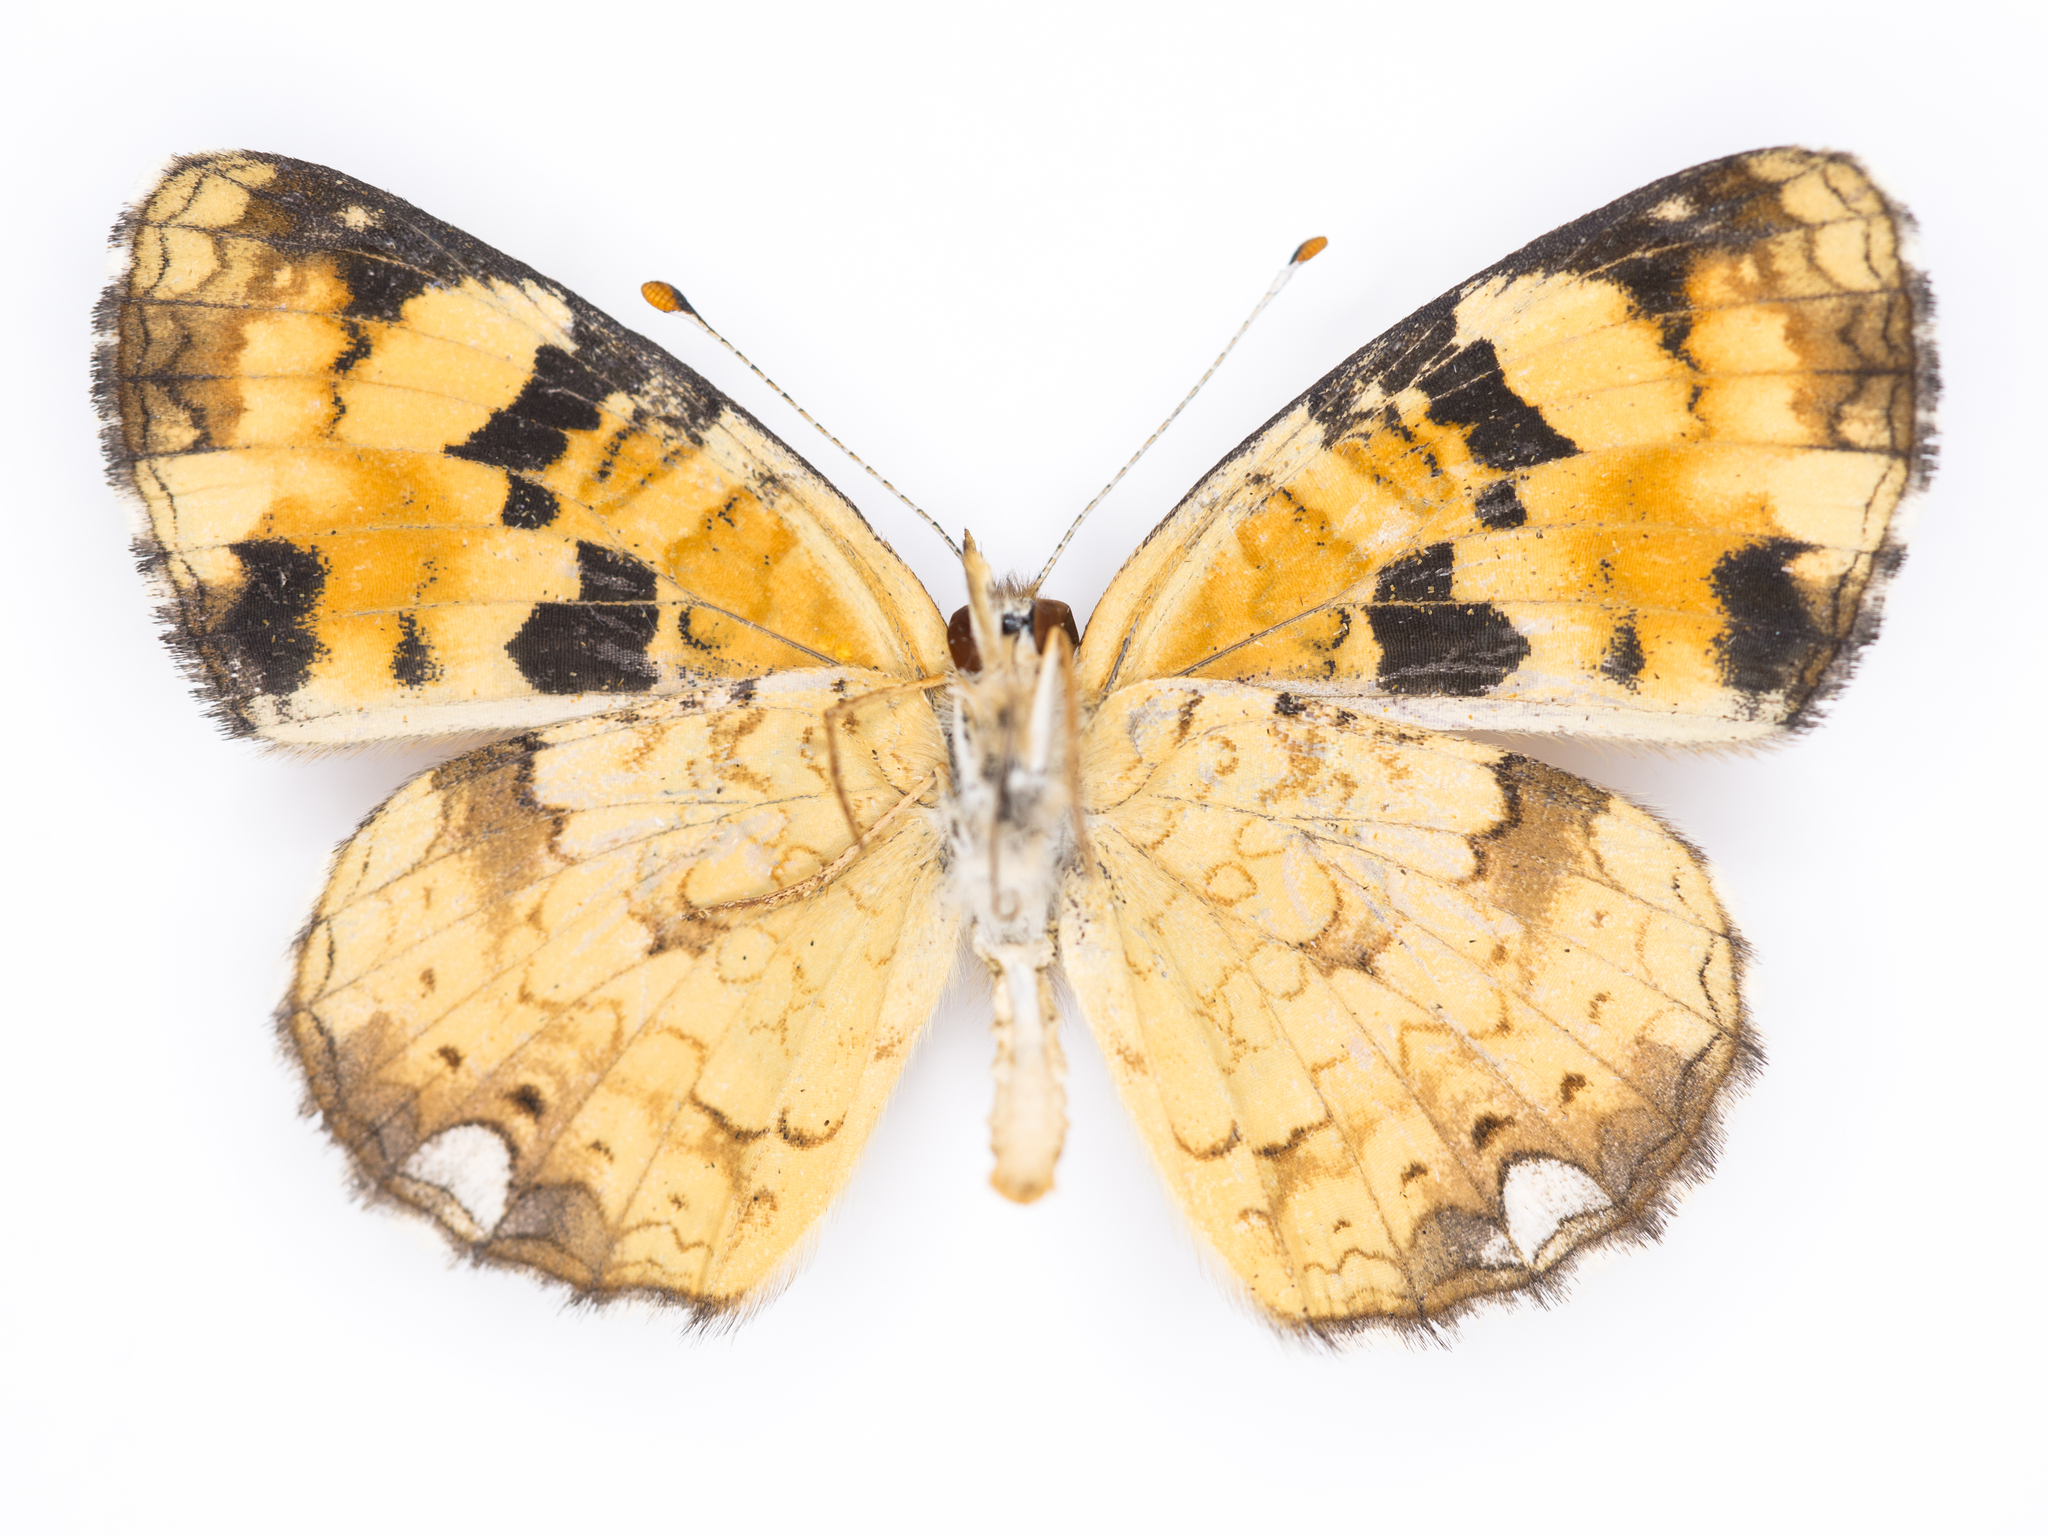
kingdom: Animalia
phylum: Arthropoda
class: Insecta
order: Lepidoptera
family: Nymphalidae
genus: Phyciodes
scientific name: Phyciodes batesii
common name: Tawny crescent
